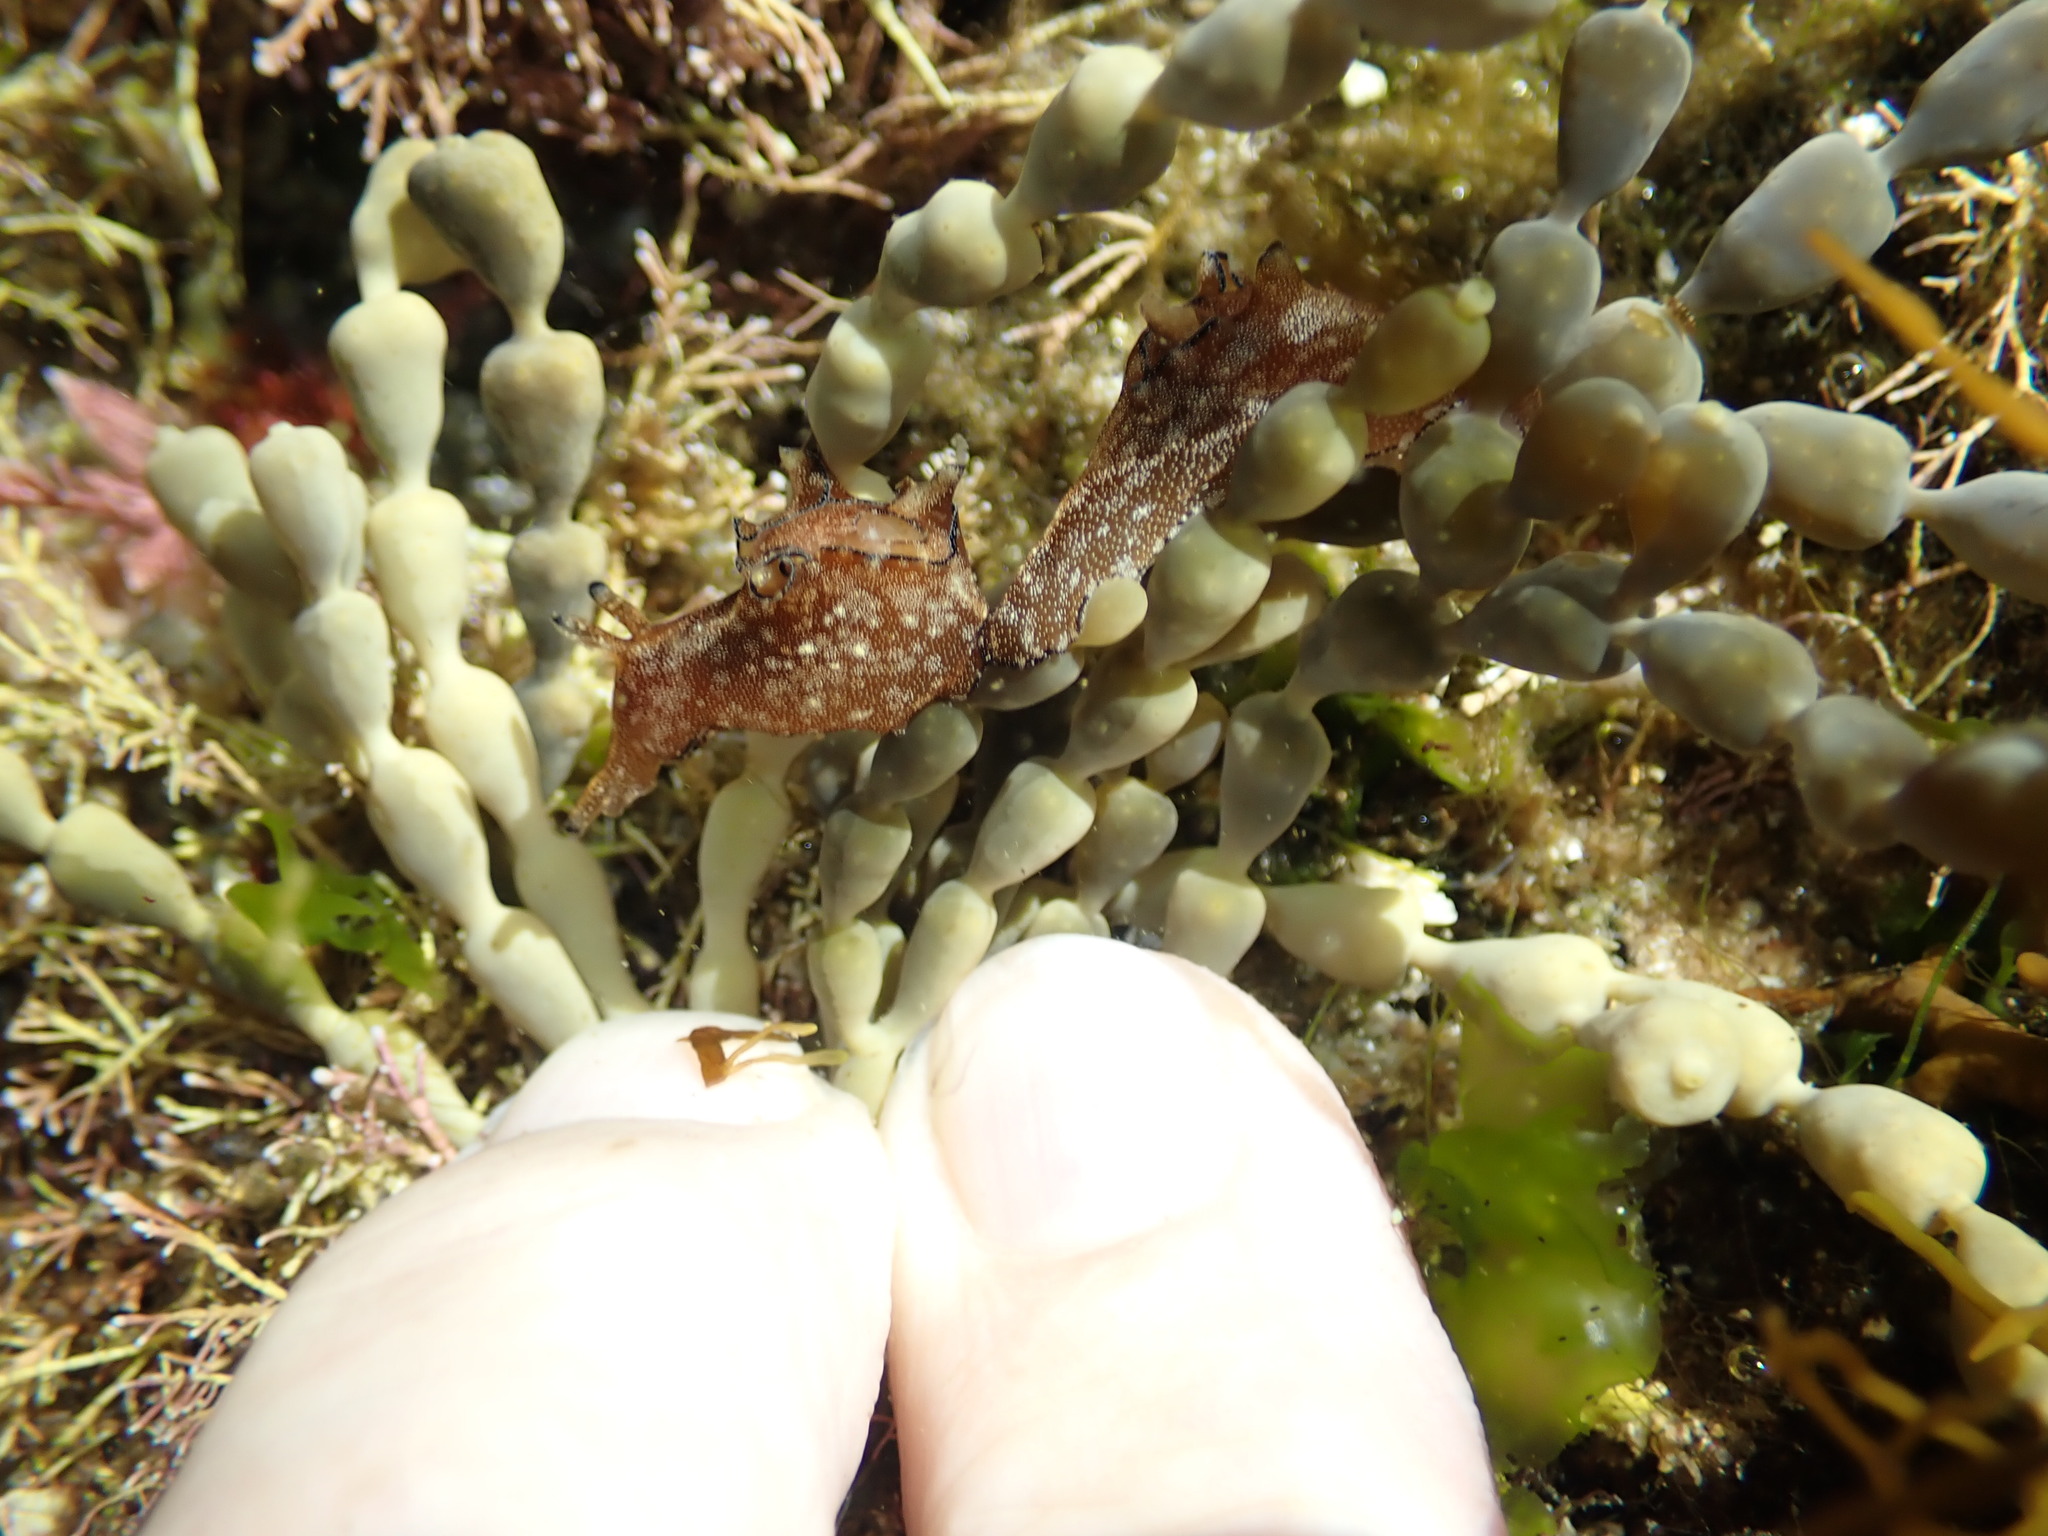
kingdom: Animalia
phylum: Mollusca
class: Gastropoda
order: Aplysiida
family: Aplysiidae
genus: Aplysia
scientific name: Aplysia concava
